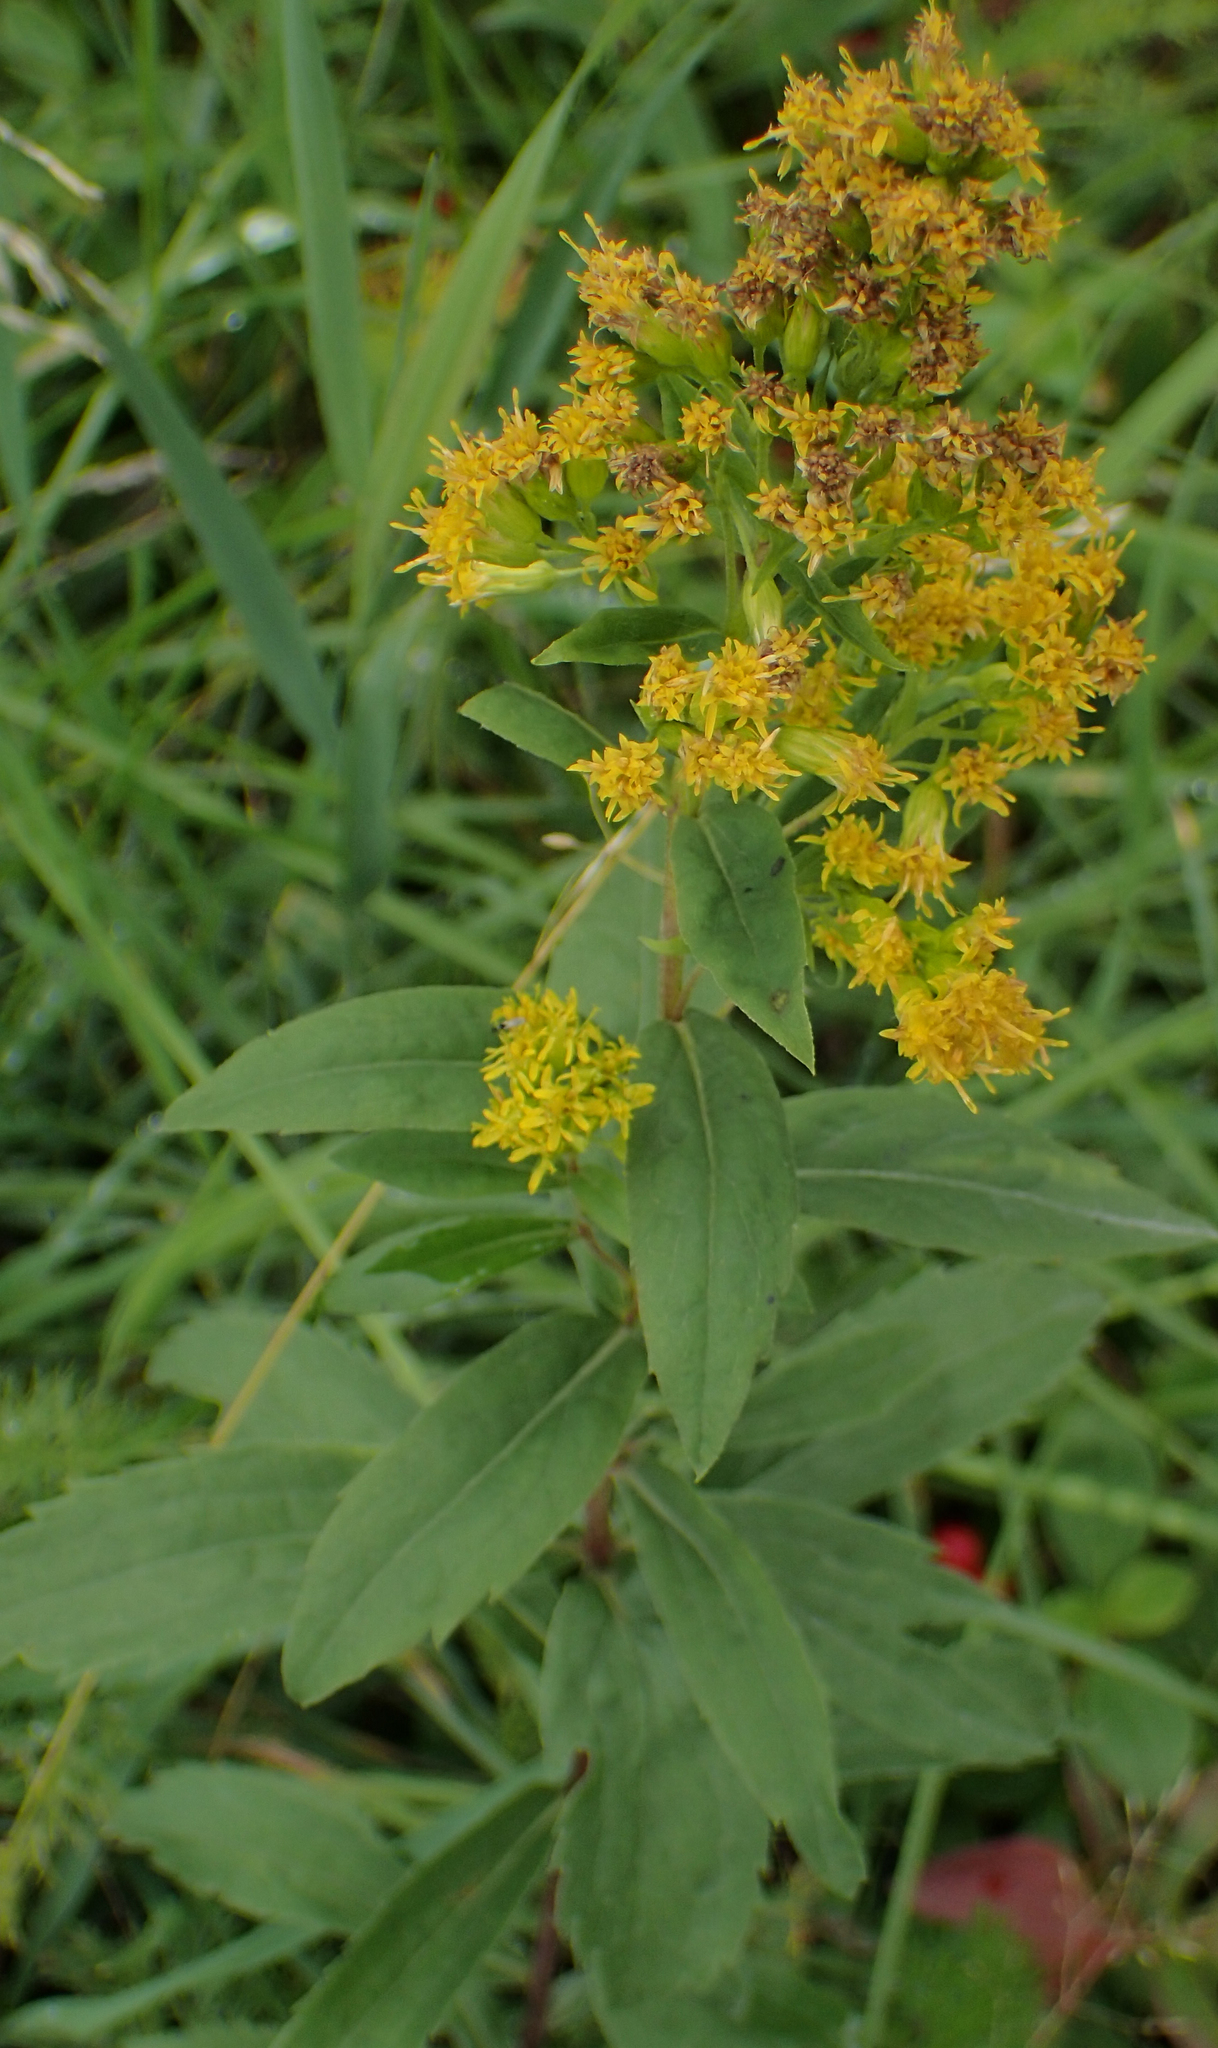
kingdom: Plantae
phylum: Tracheophyta
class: Magnoliopsida
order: Asterales
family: Asteraceae
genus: Solidago
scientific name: Solidago lepida
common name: Western canada goldenrod
